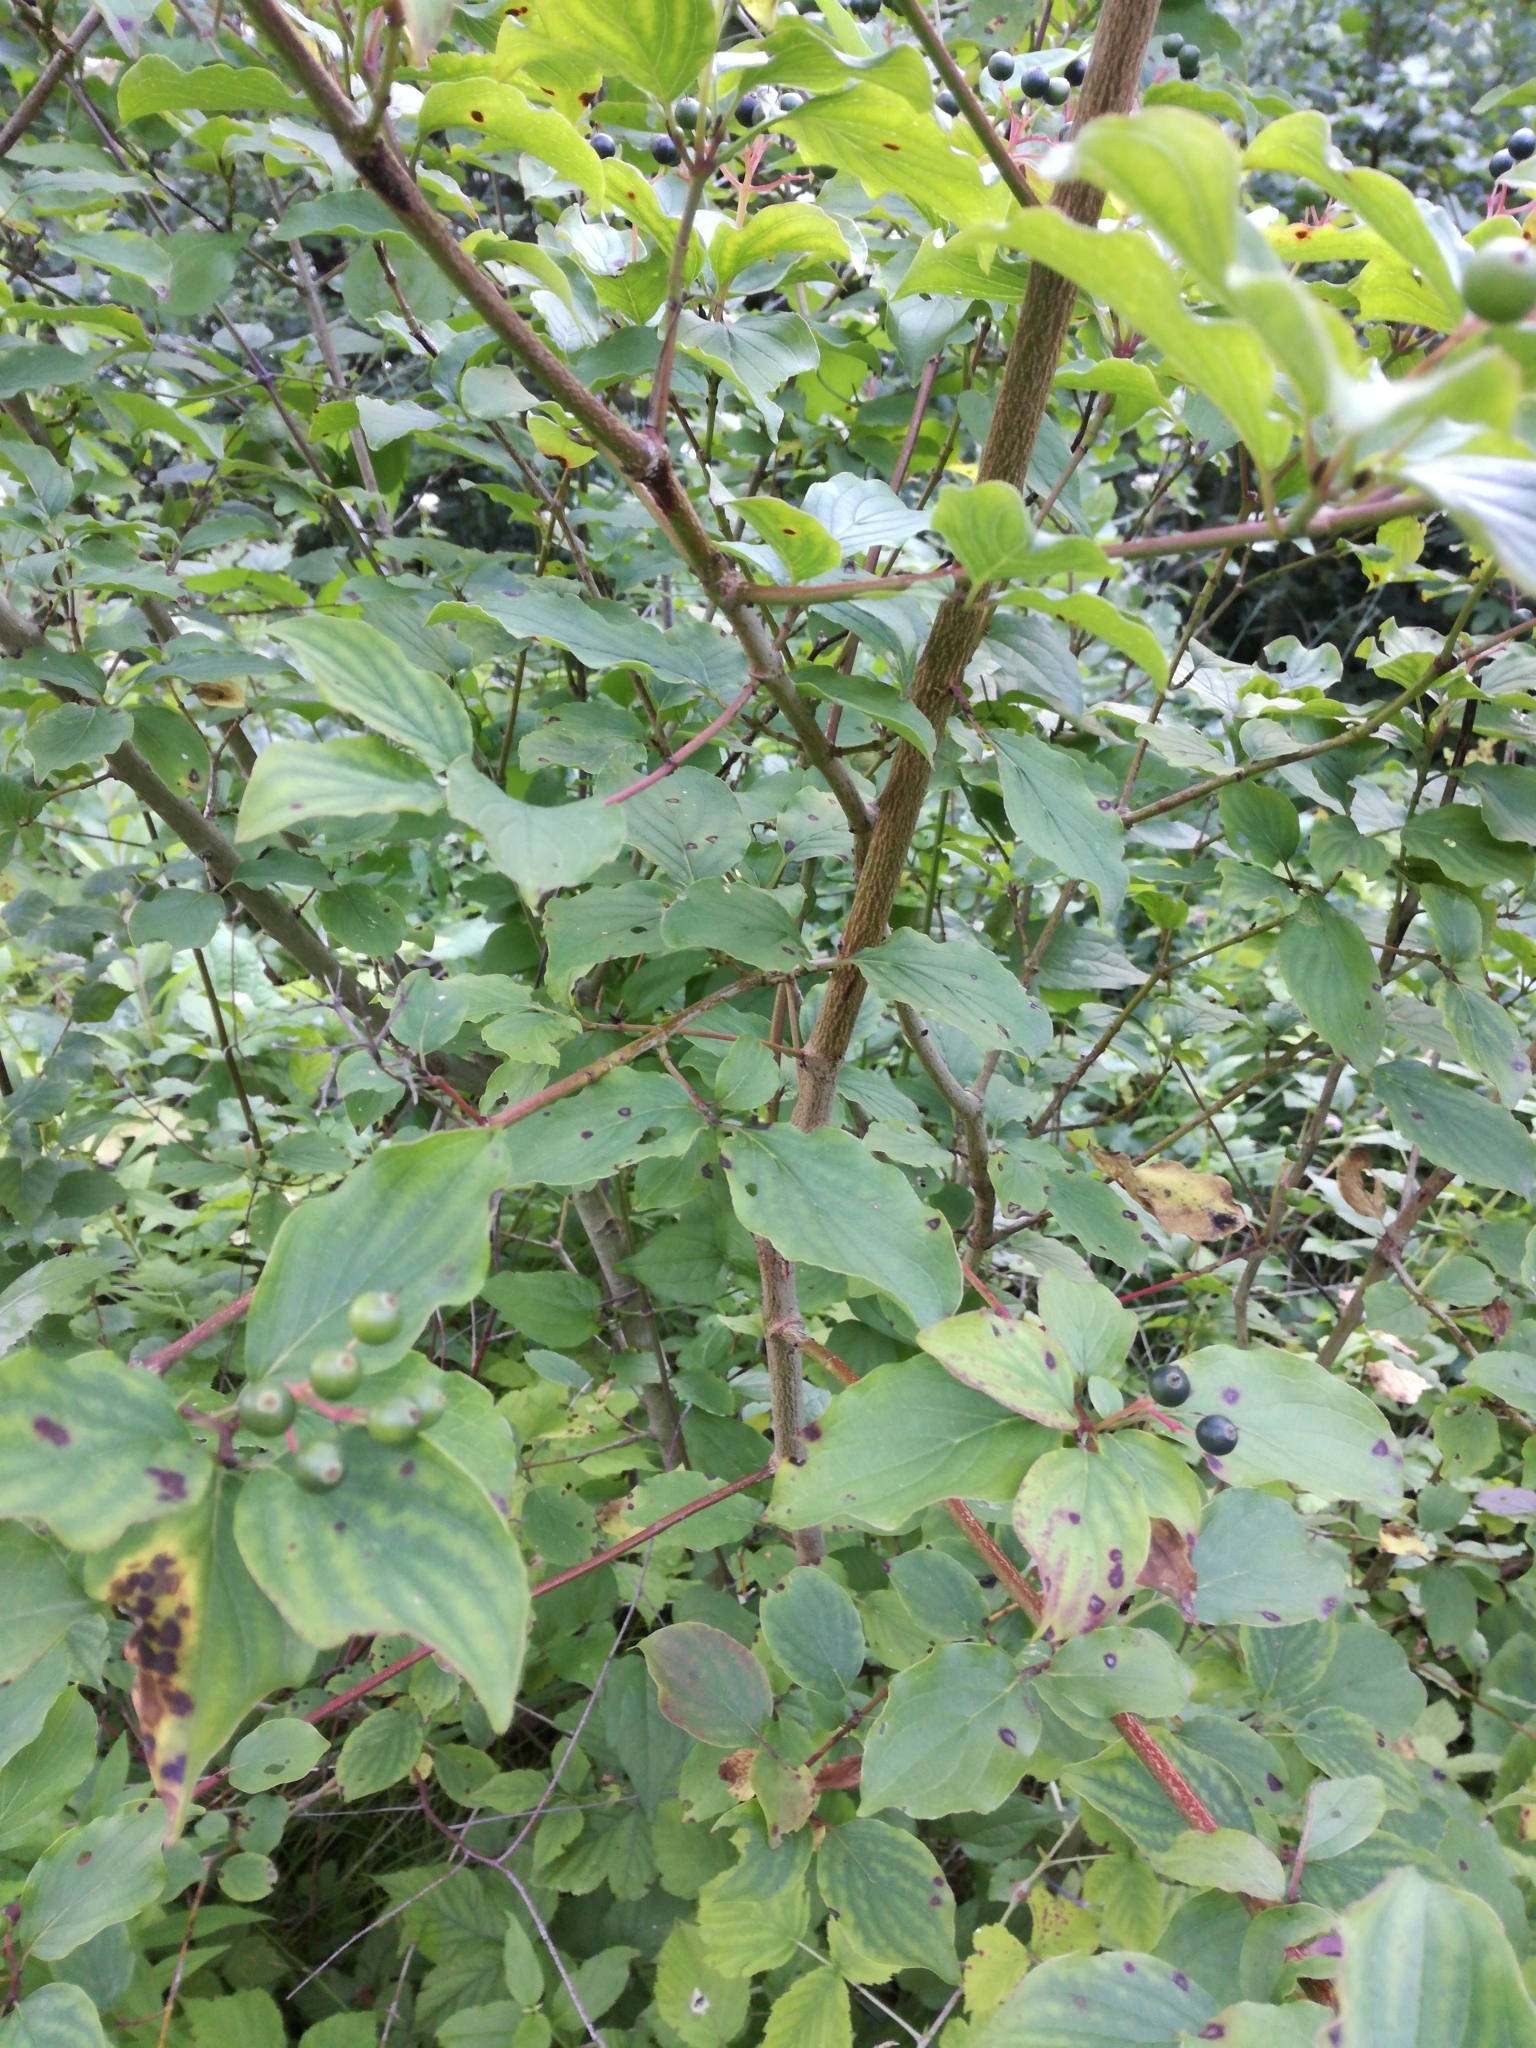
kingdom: Plantae
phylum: Tracheophyta
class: Magnoliopsida
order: Cornales
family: Cornaceae
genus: Cornus
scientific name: Cornus sanguinea
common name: Dogwood
